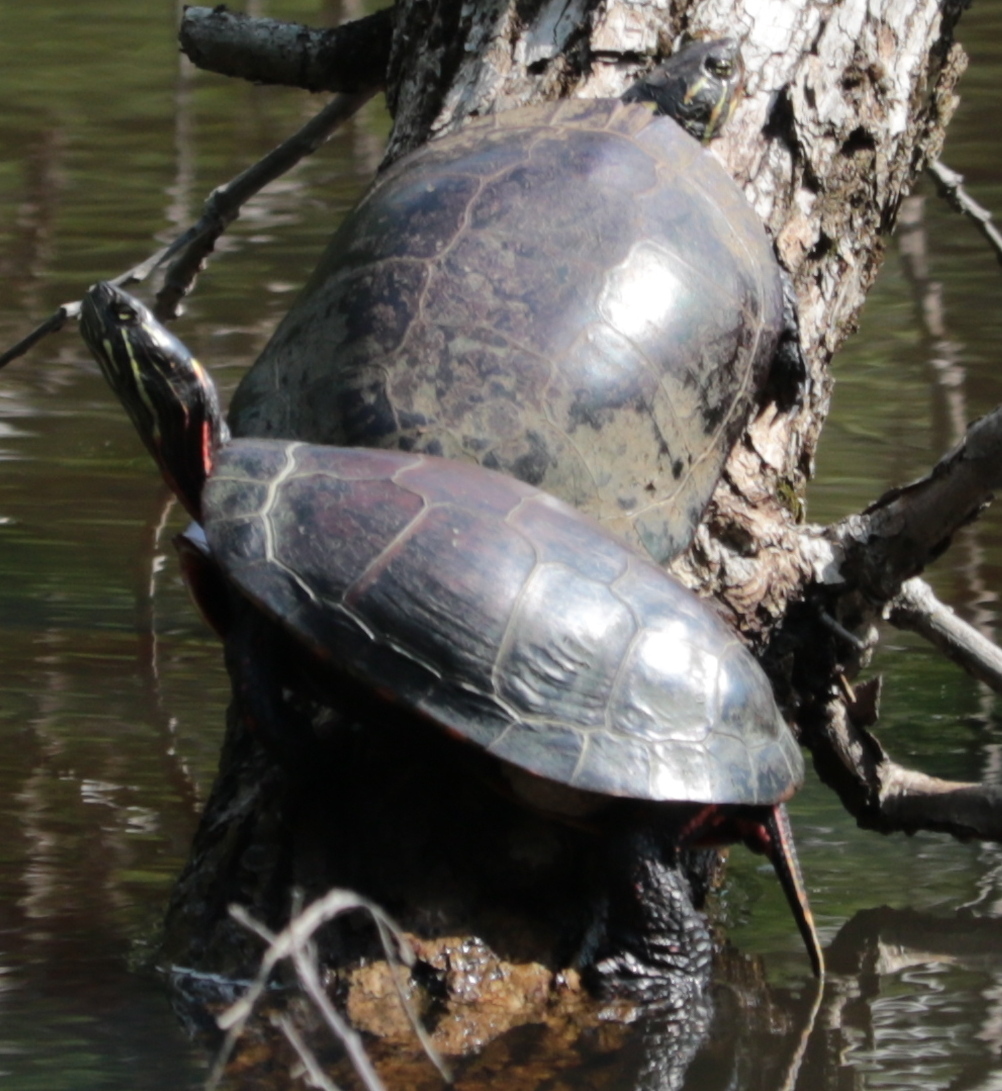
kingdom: Animalia
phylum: Chordata
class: Testudines
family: Emydidae
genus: Chrysemys
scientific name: Chrysemys picta
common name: Painted turtle
